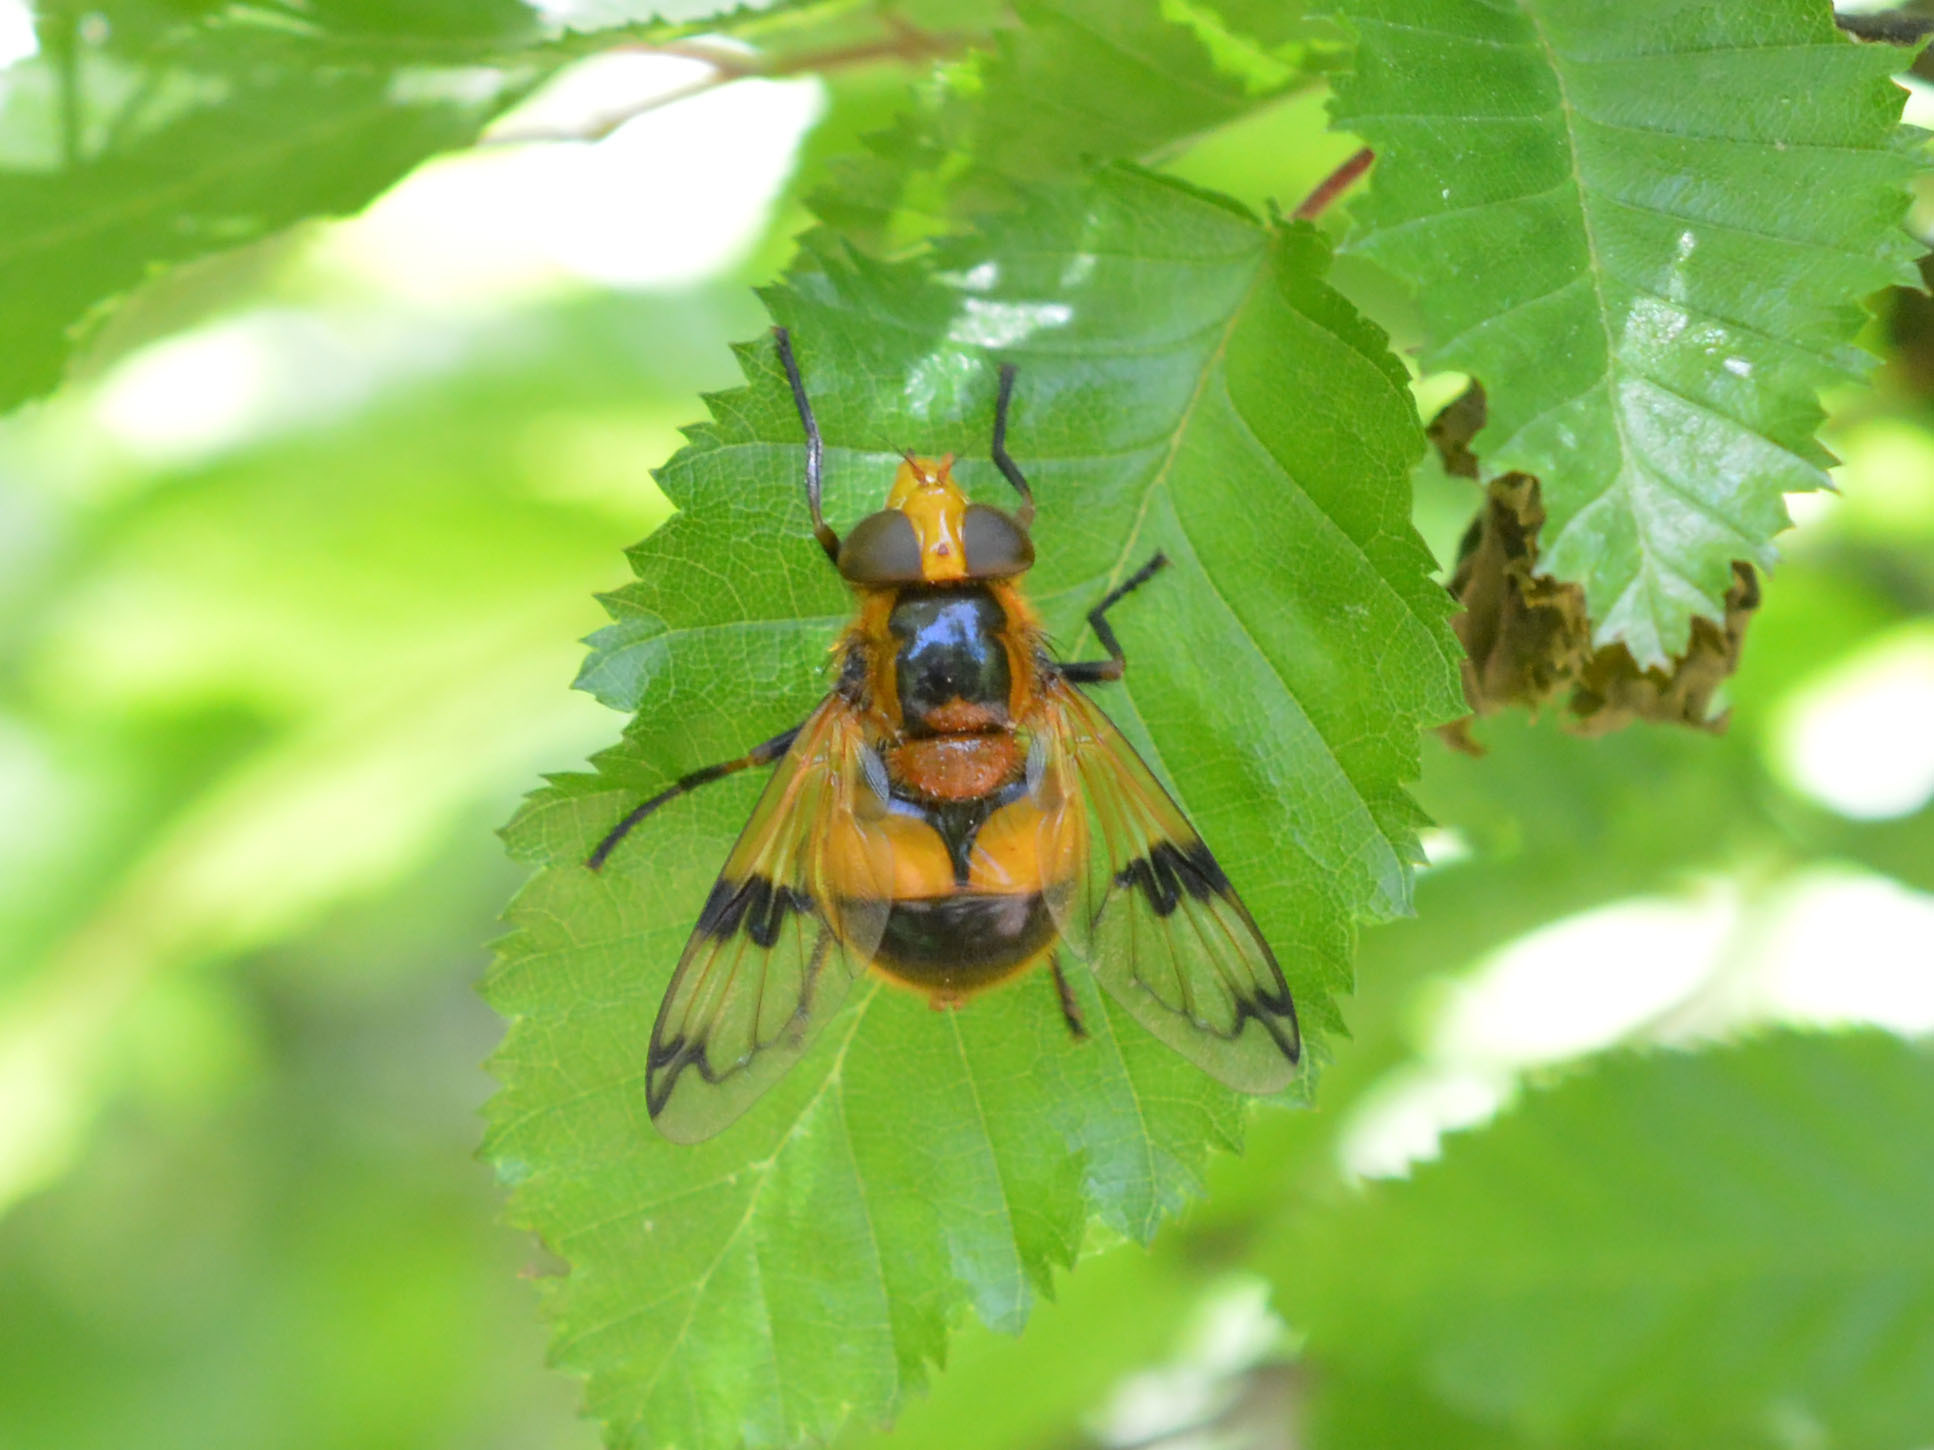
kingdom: Animalia
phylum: Arthropoda
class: Insecta
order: Diptera
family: Syrphidae
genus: Volucella
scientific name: Volucella inflata
